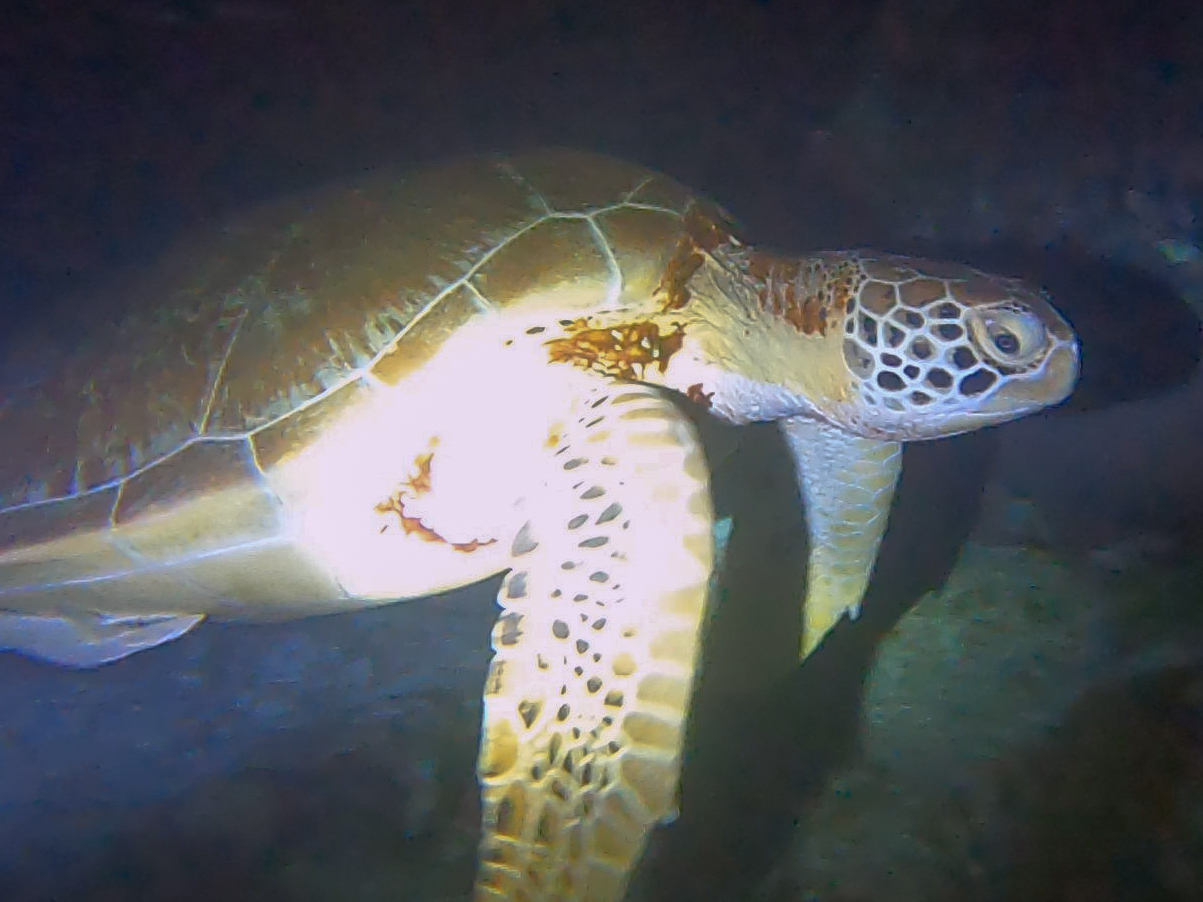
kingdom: Animalia
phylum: Chordata
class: Testudines
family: Cheloniidae
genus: Chelonia
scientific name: Chelonia mydas
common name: Green turtle
